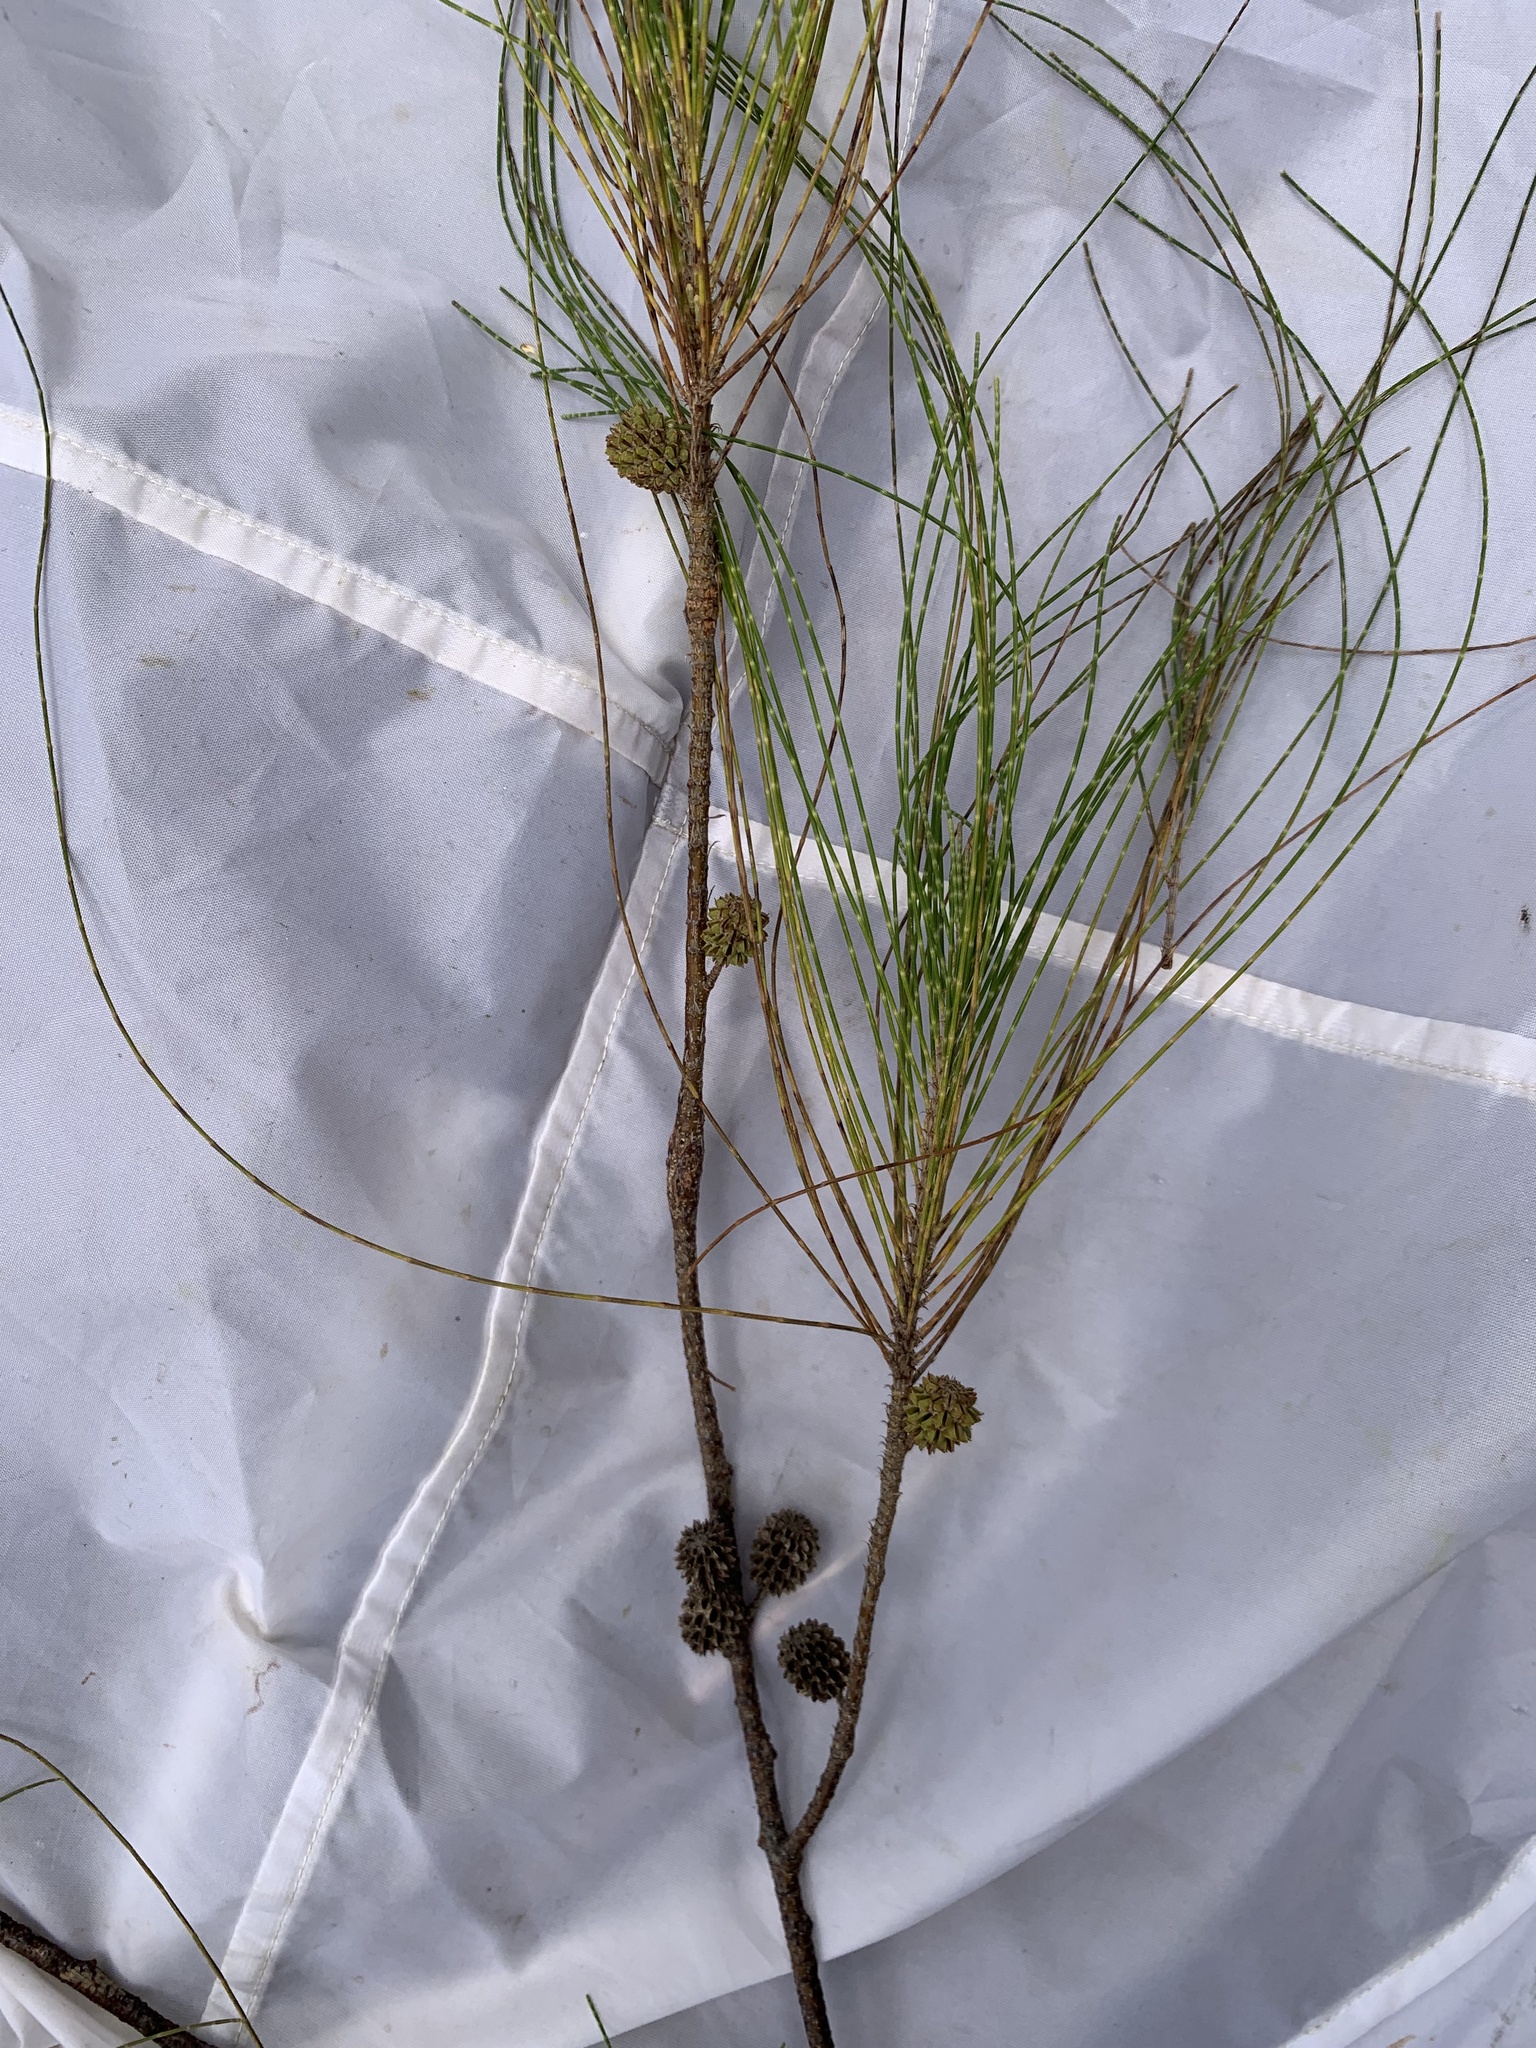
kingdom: Plantae
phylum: Tracheophyta
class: Magnoliopsida
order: Fagales
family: Casuarinaceae
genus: Casuarina
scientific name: Casuarina equisetifolia
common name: Beach sheoak
